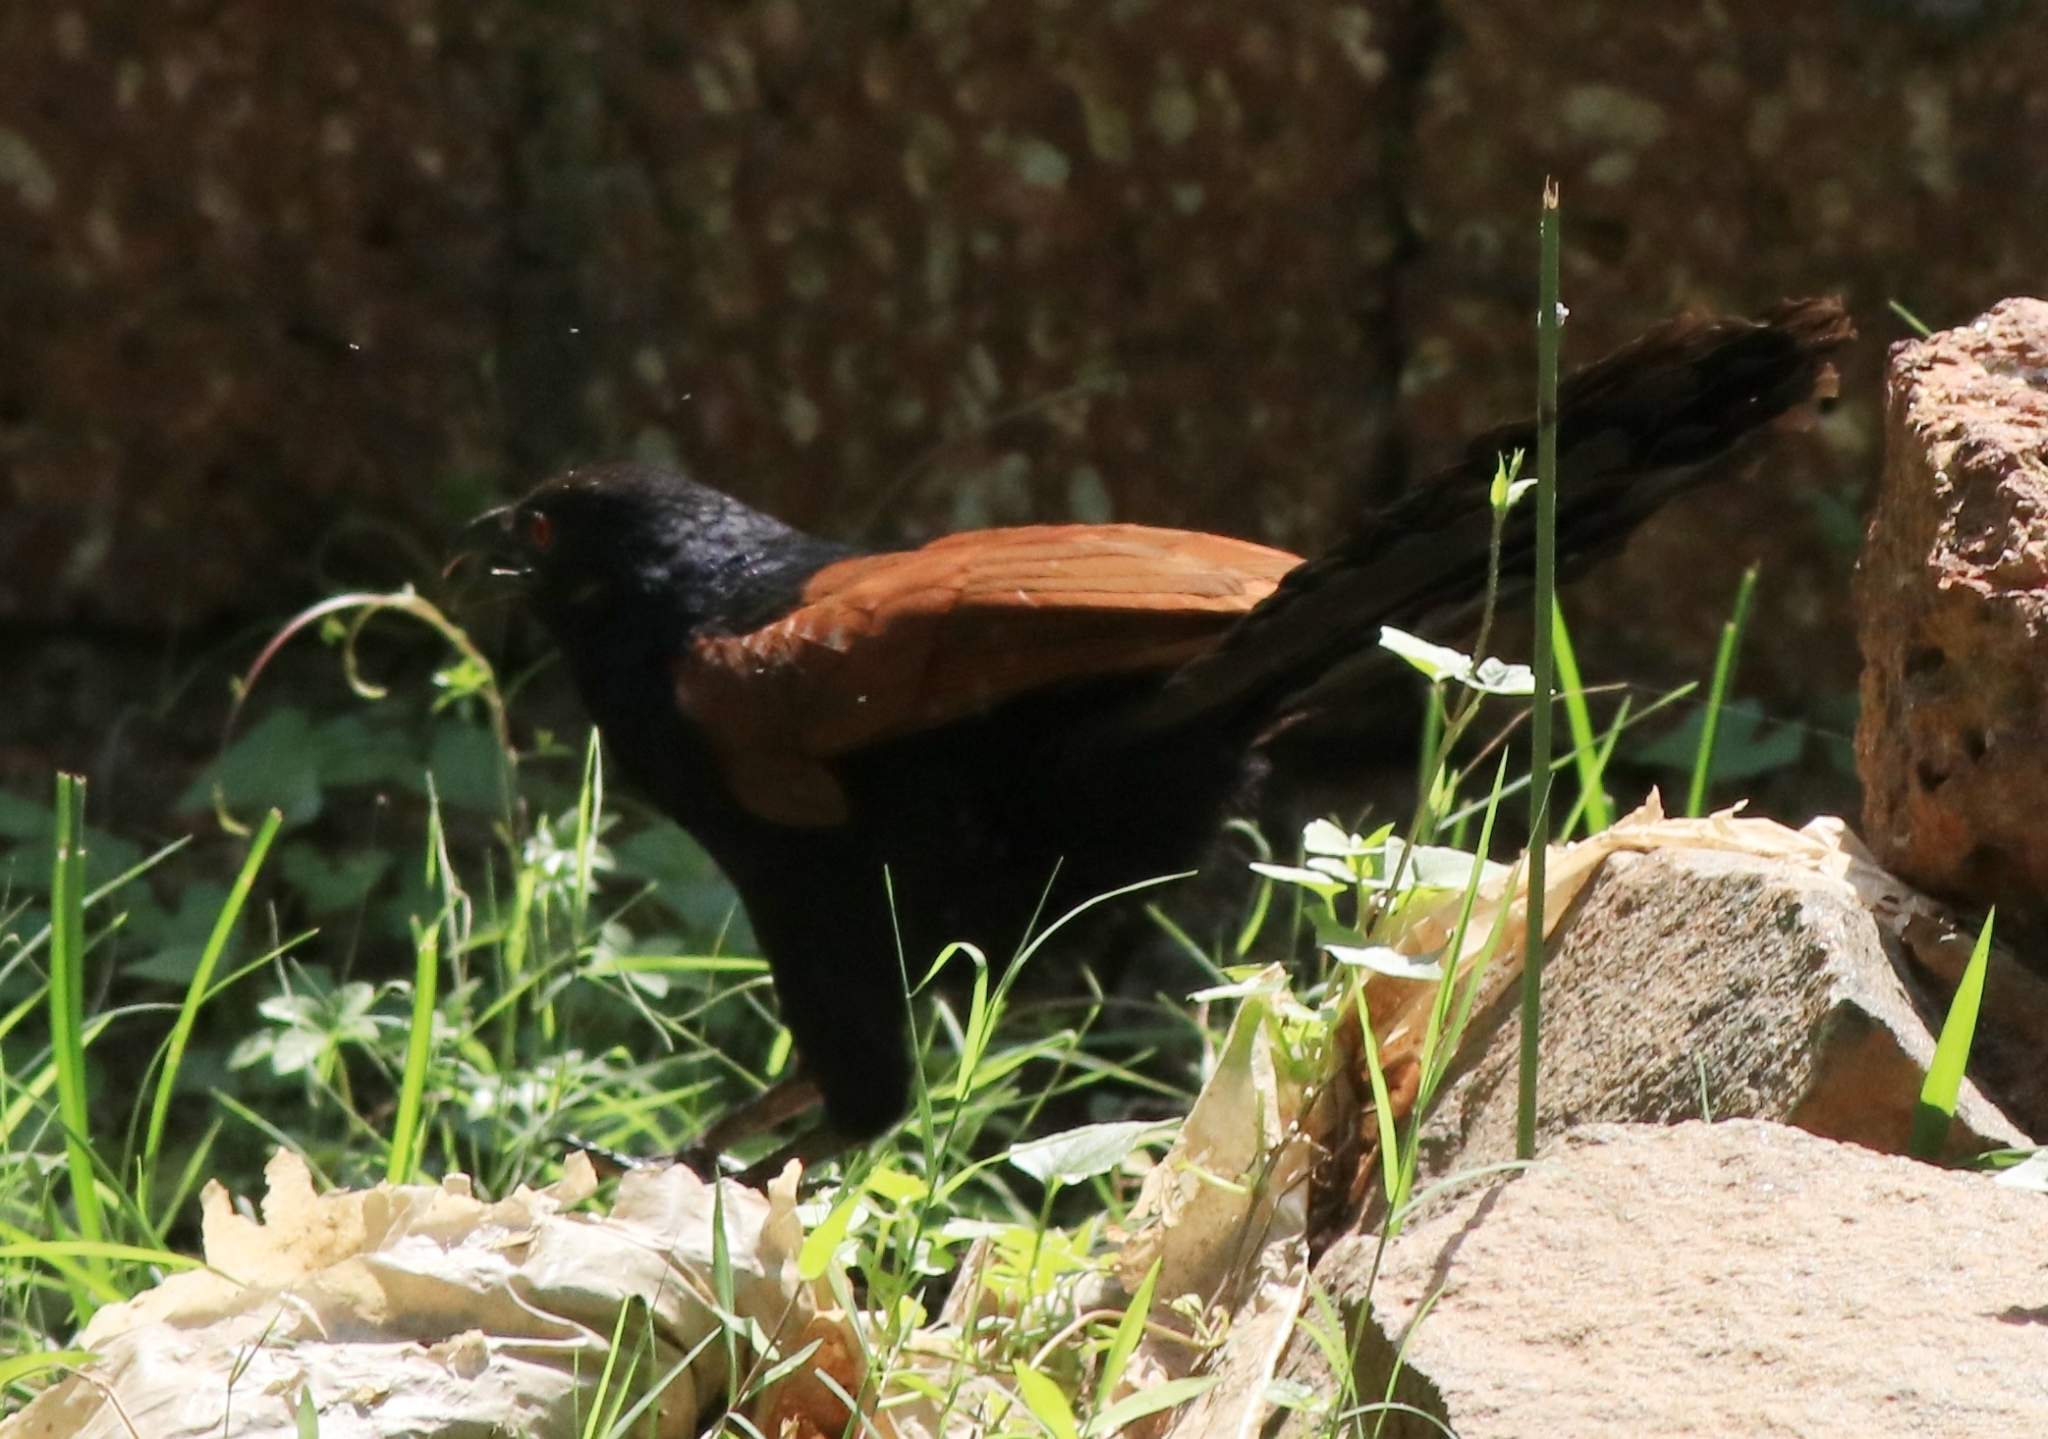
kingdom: Animalia
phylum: Chordata
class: Aves
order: Cuculiformes
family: Cuculidae
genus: Centropus
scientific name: Centropus sinensis
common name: Greater coucal
